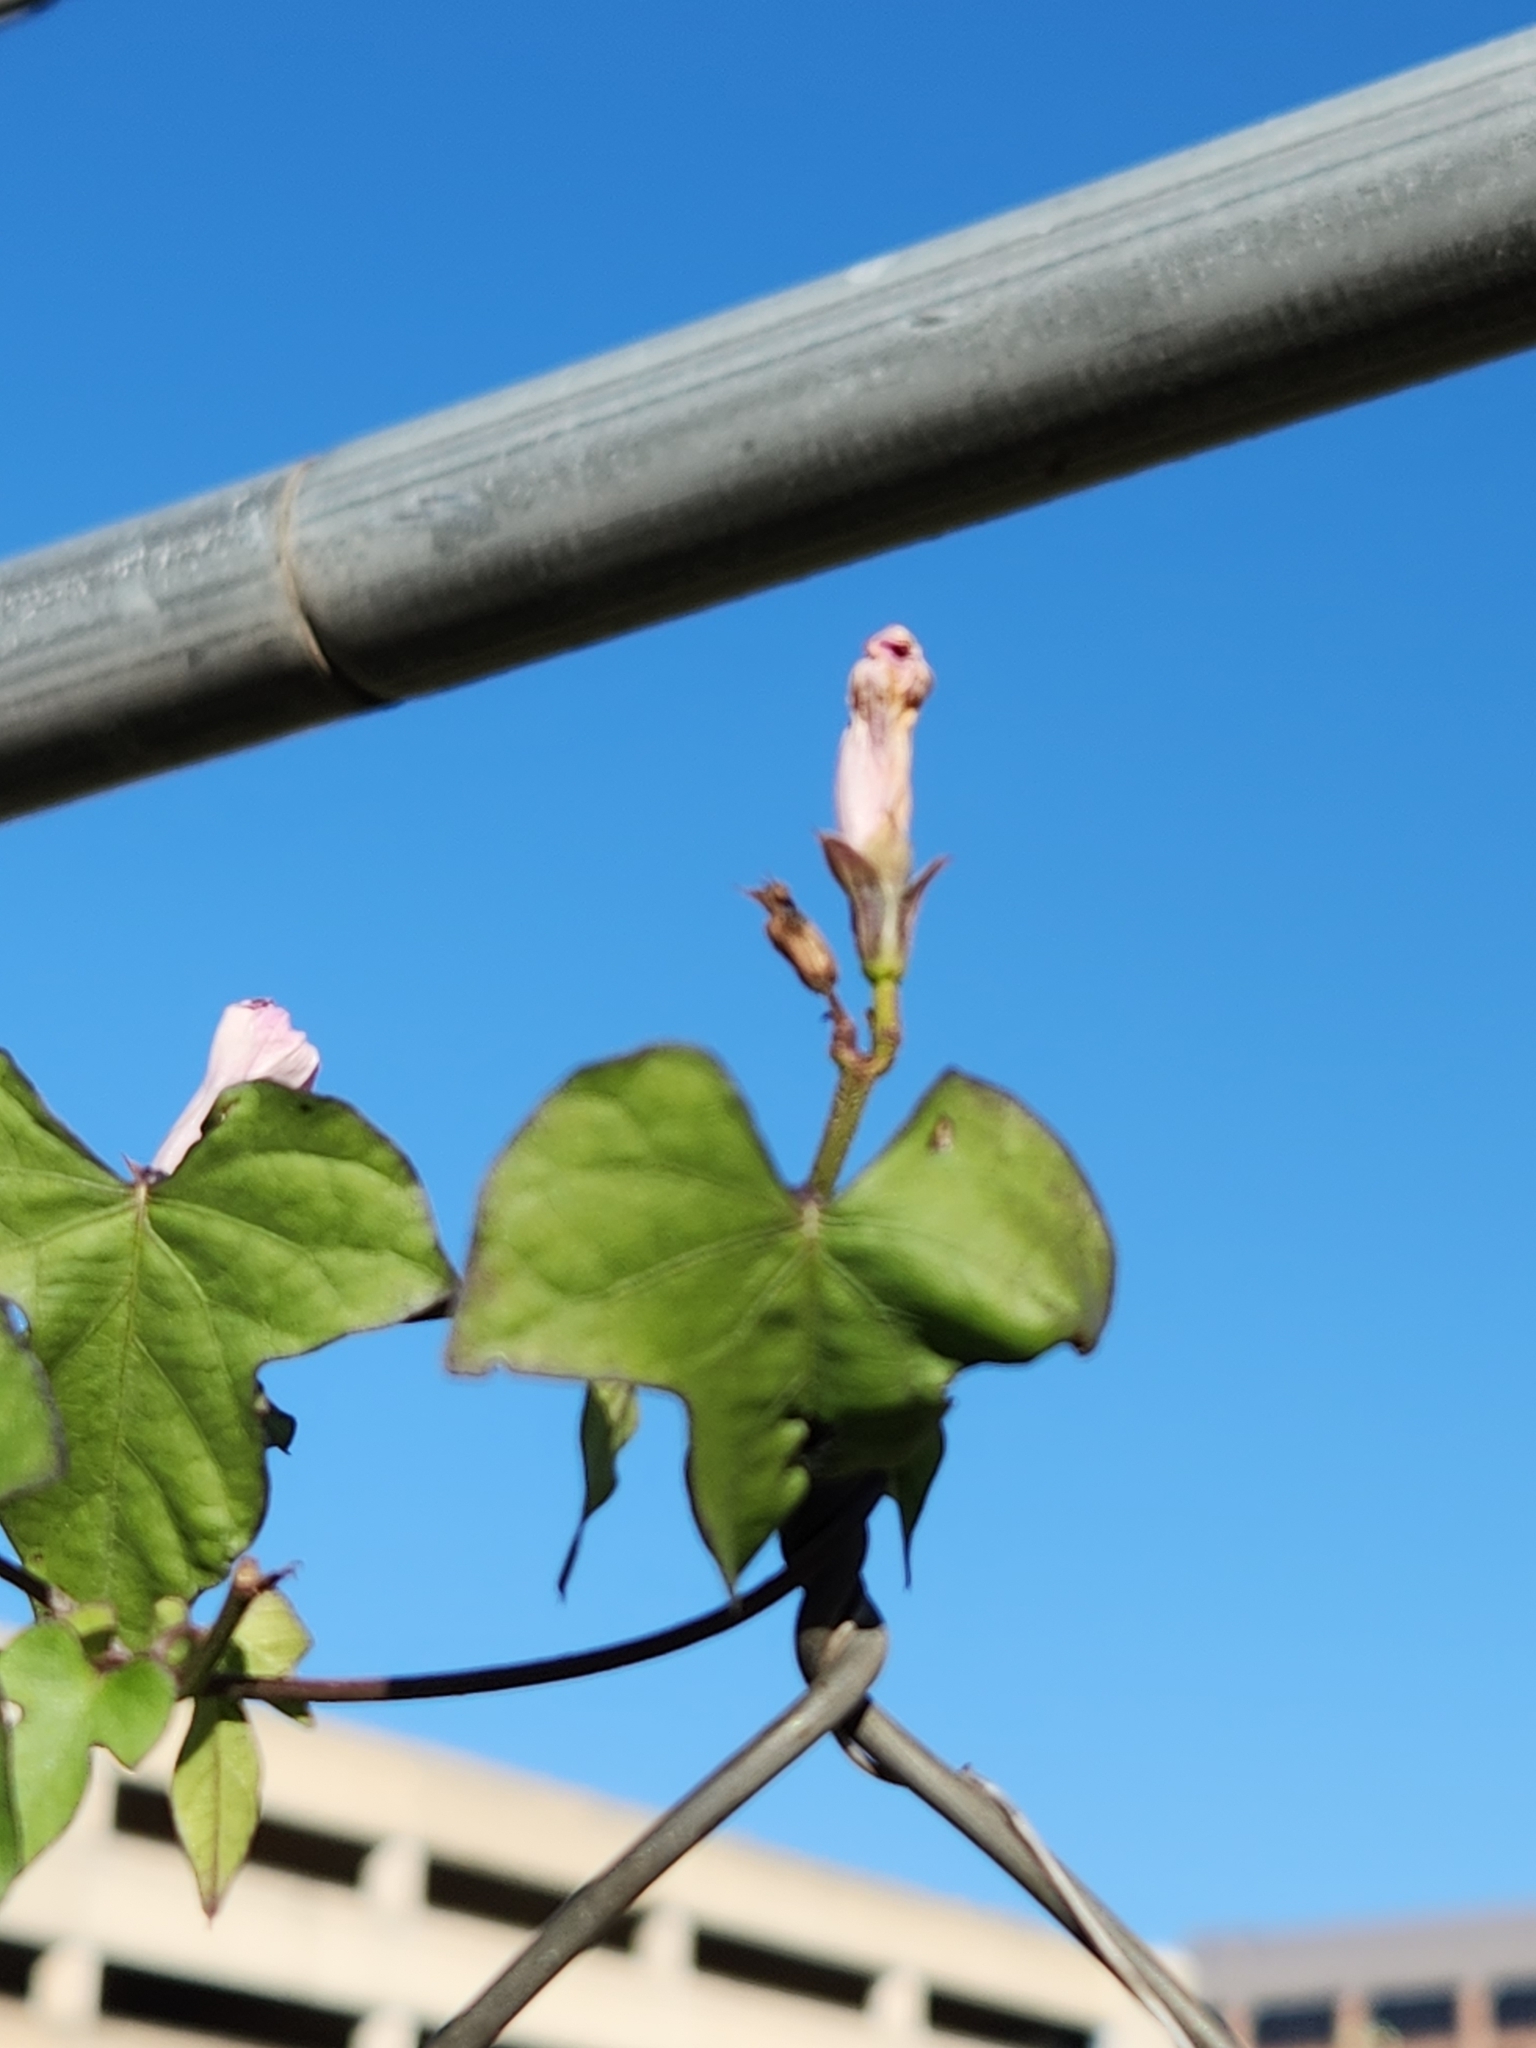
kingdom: Plantae
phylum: Tracheophyta
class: Magnoliopsida
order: Solanales
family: Convolvulaceae
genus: Ipomoea
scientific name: Ipomoea cordatotriloba
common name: Cotton morning glory
